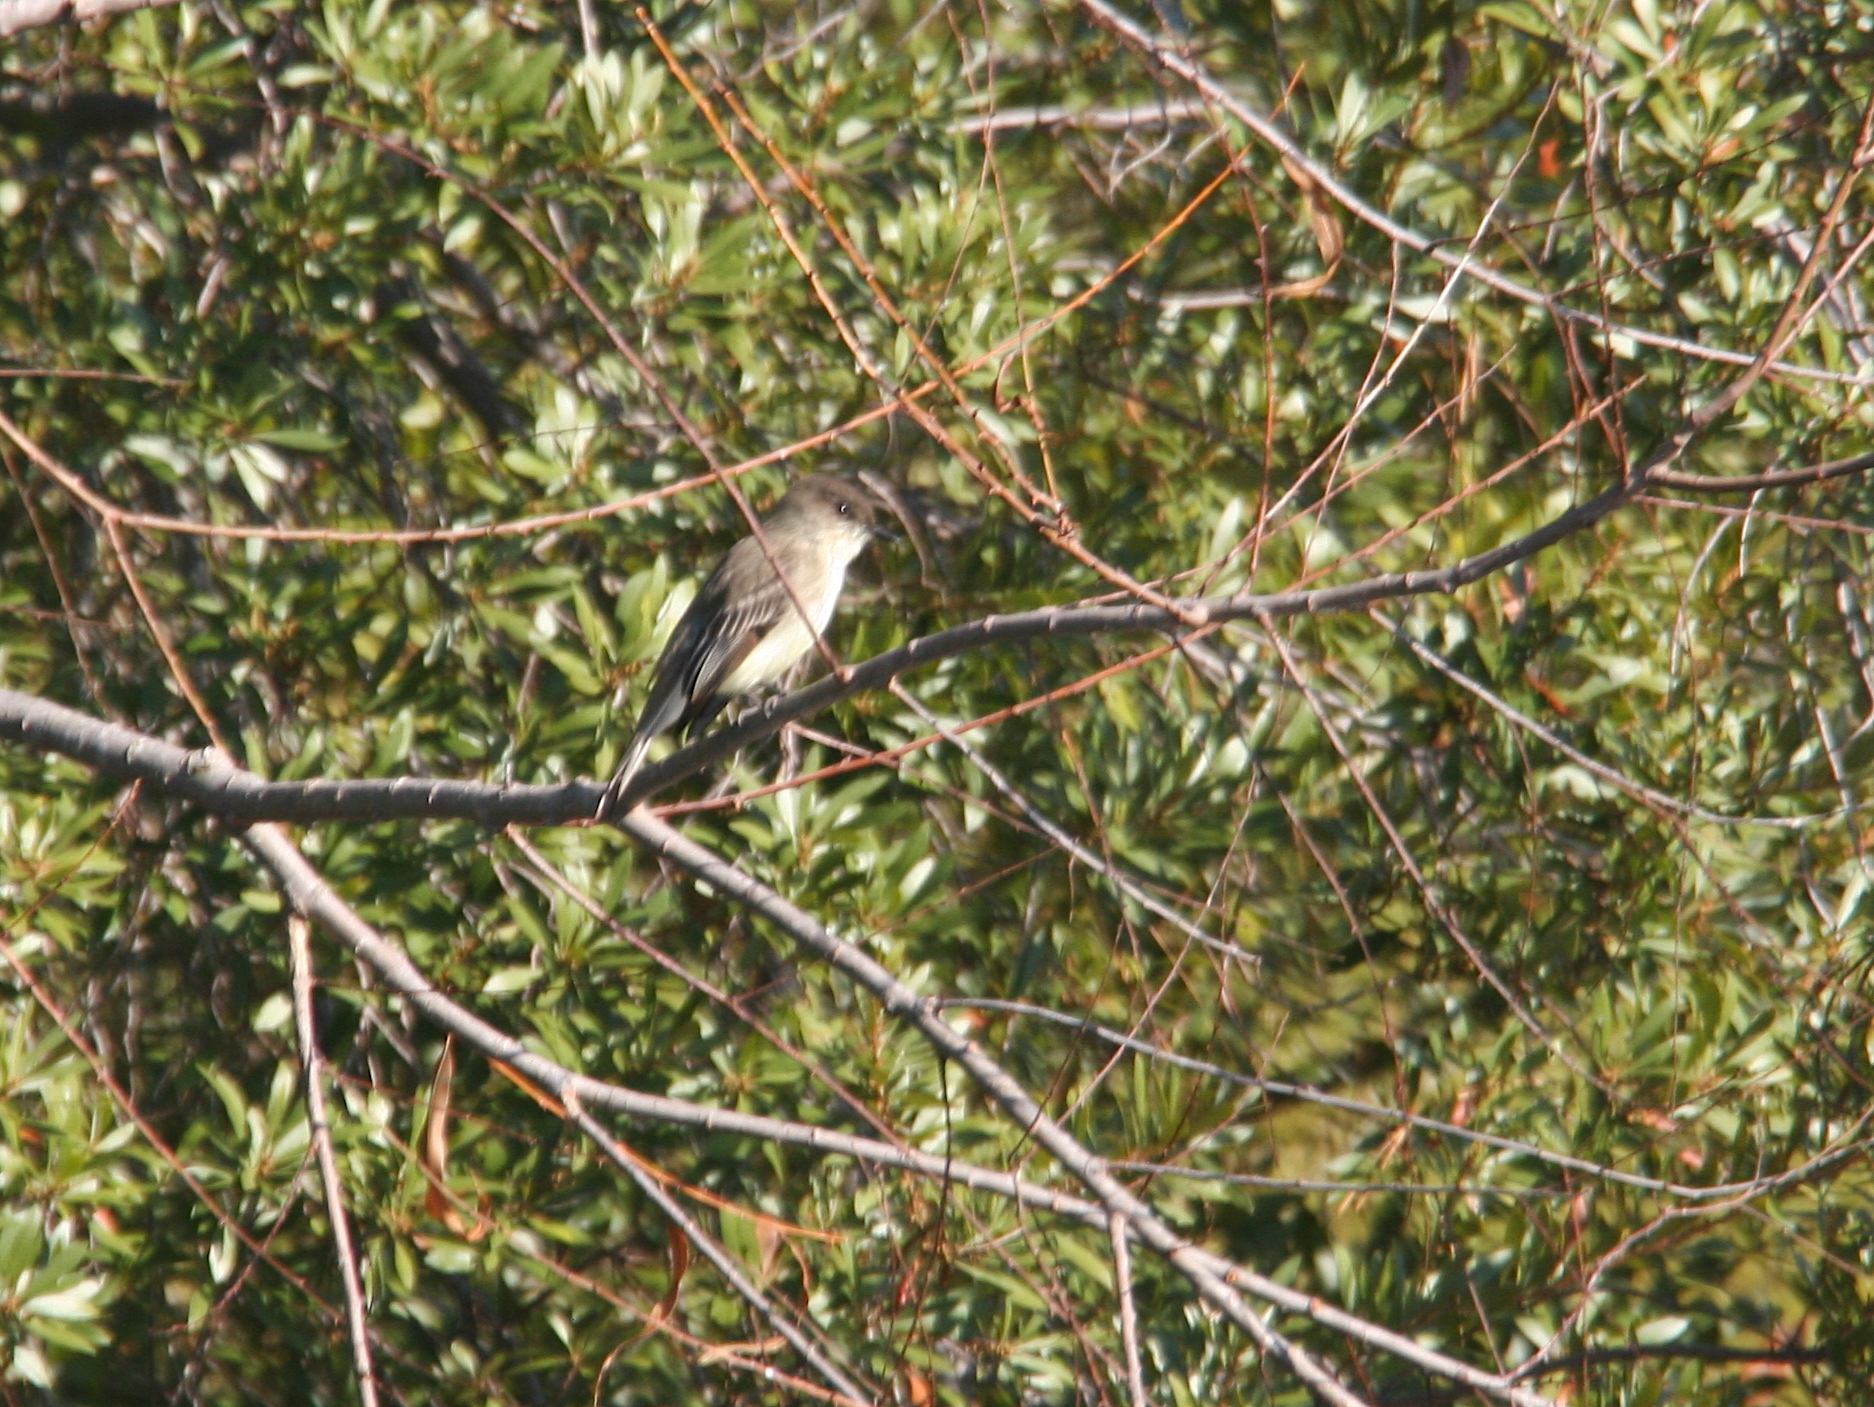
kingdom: Animalia
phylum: Chordata
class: Aves
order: Passeriformes
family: Tyrannidae
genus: Sayornis
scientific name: Sayornis phoebe
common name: Eastern phoebe
